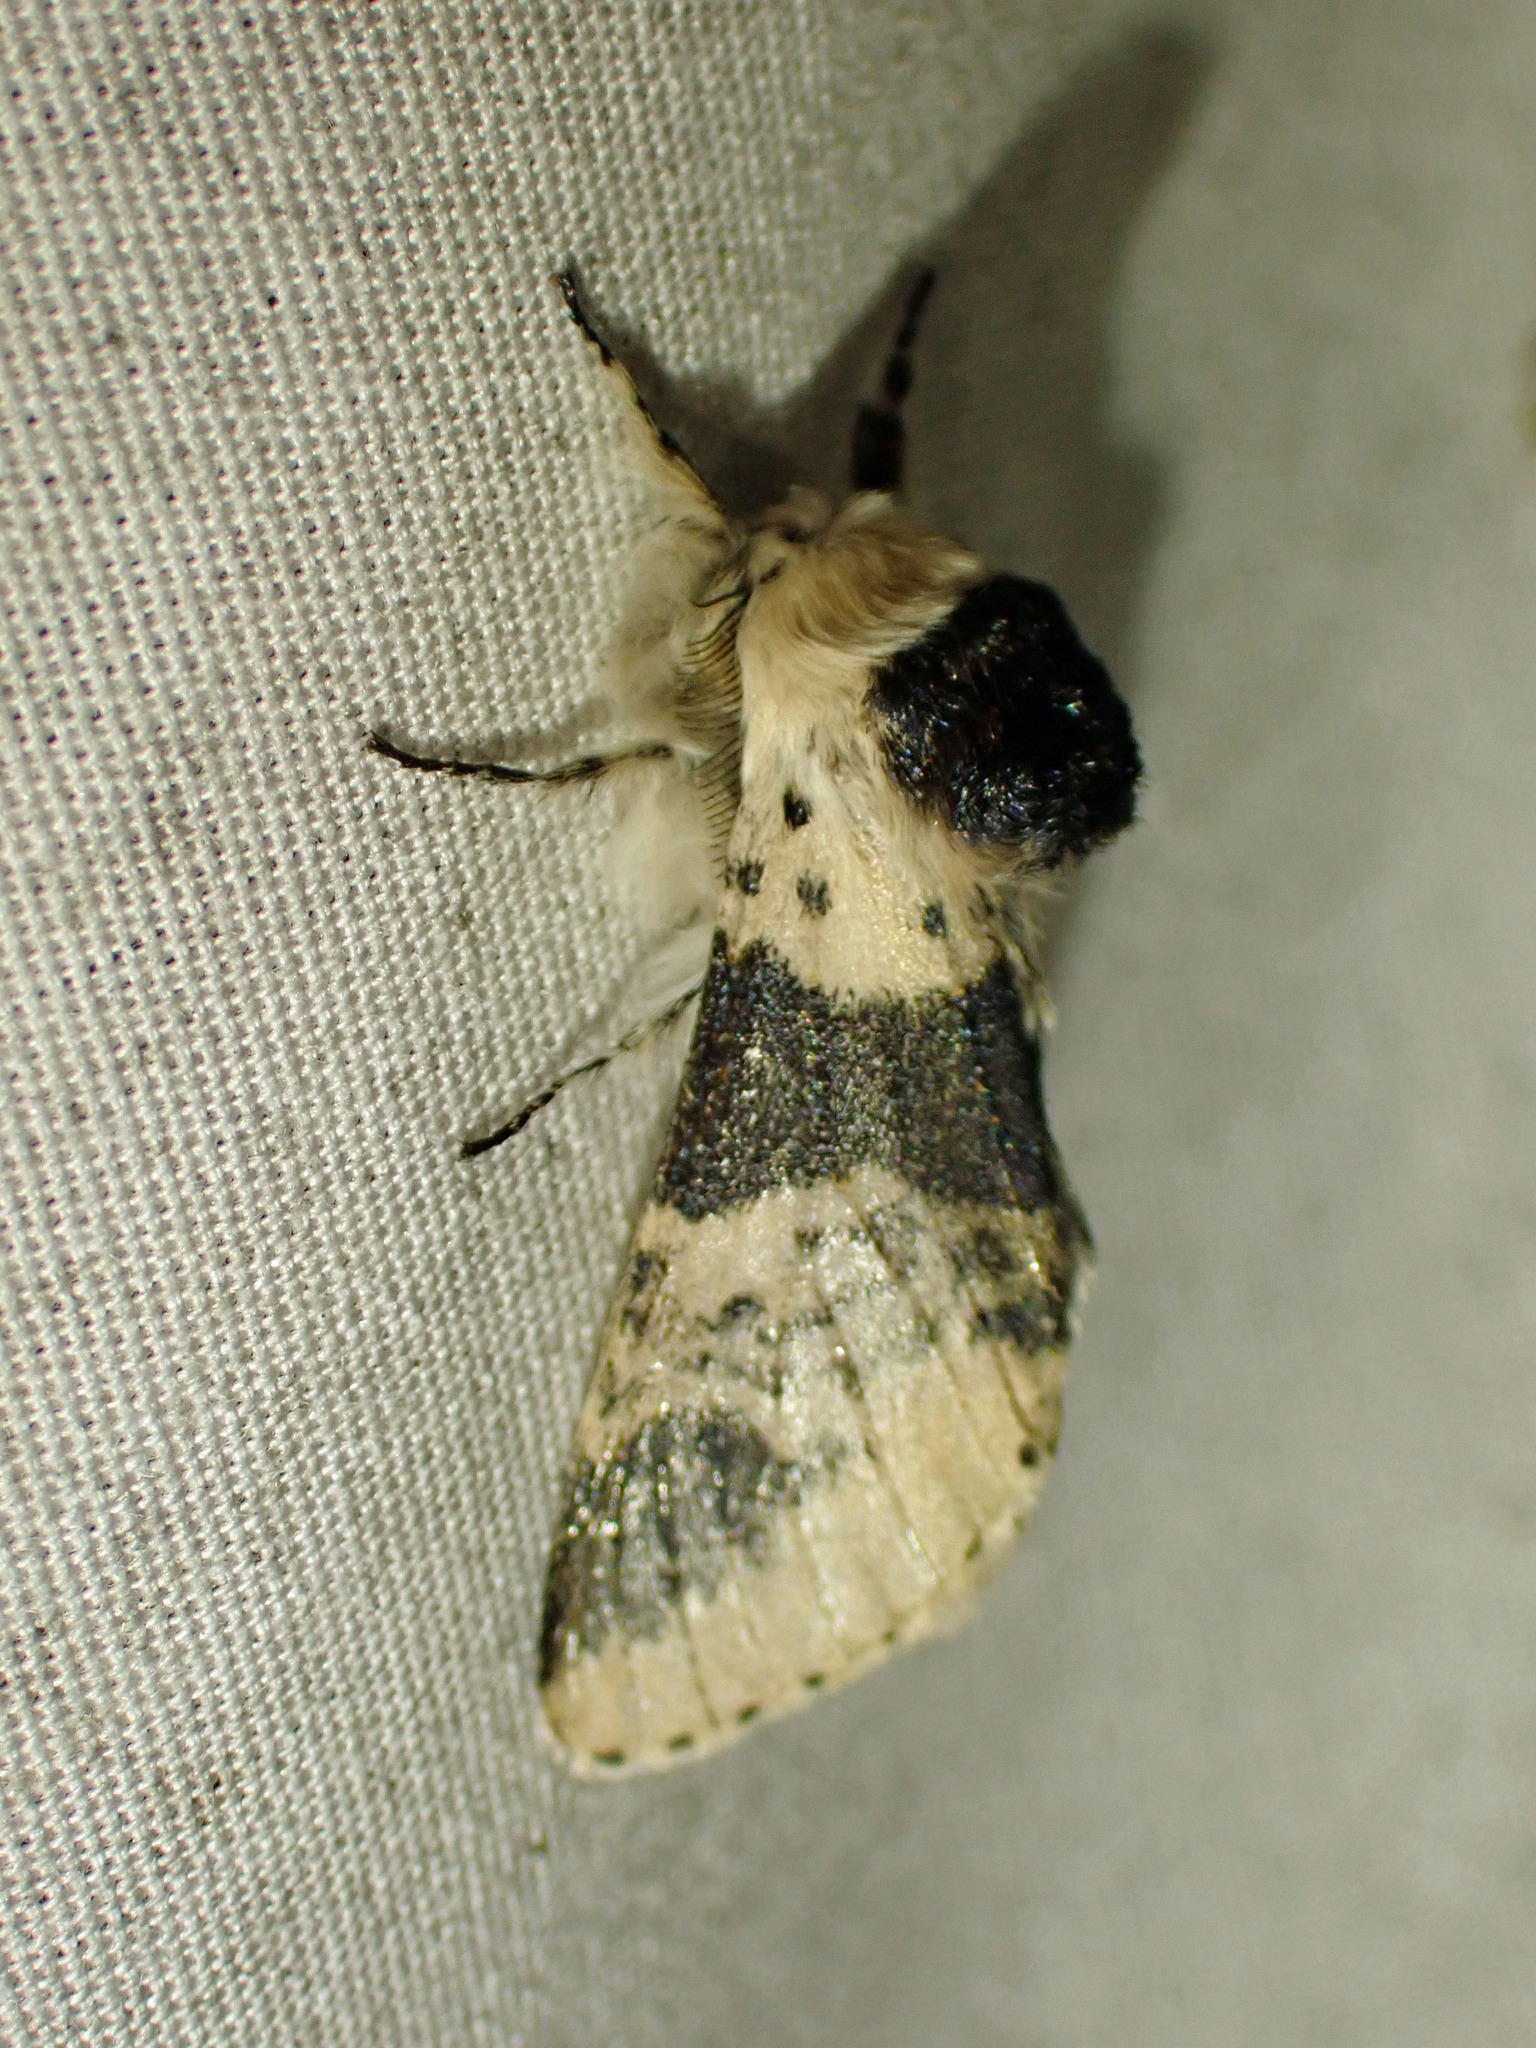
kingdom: Animalia
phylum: Arthropoda
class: Insecta
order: Lepidoptera
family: Notodontidae
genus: Furcula
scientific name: Furcula modesta
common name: Modest furcula moth
